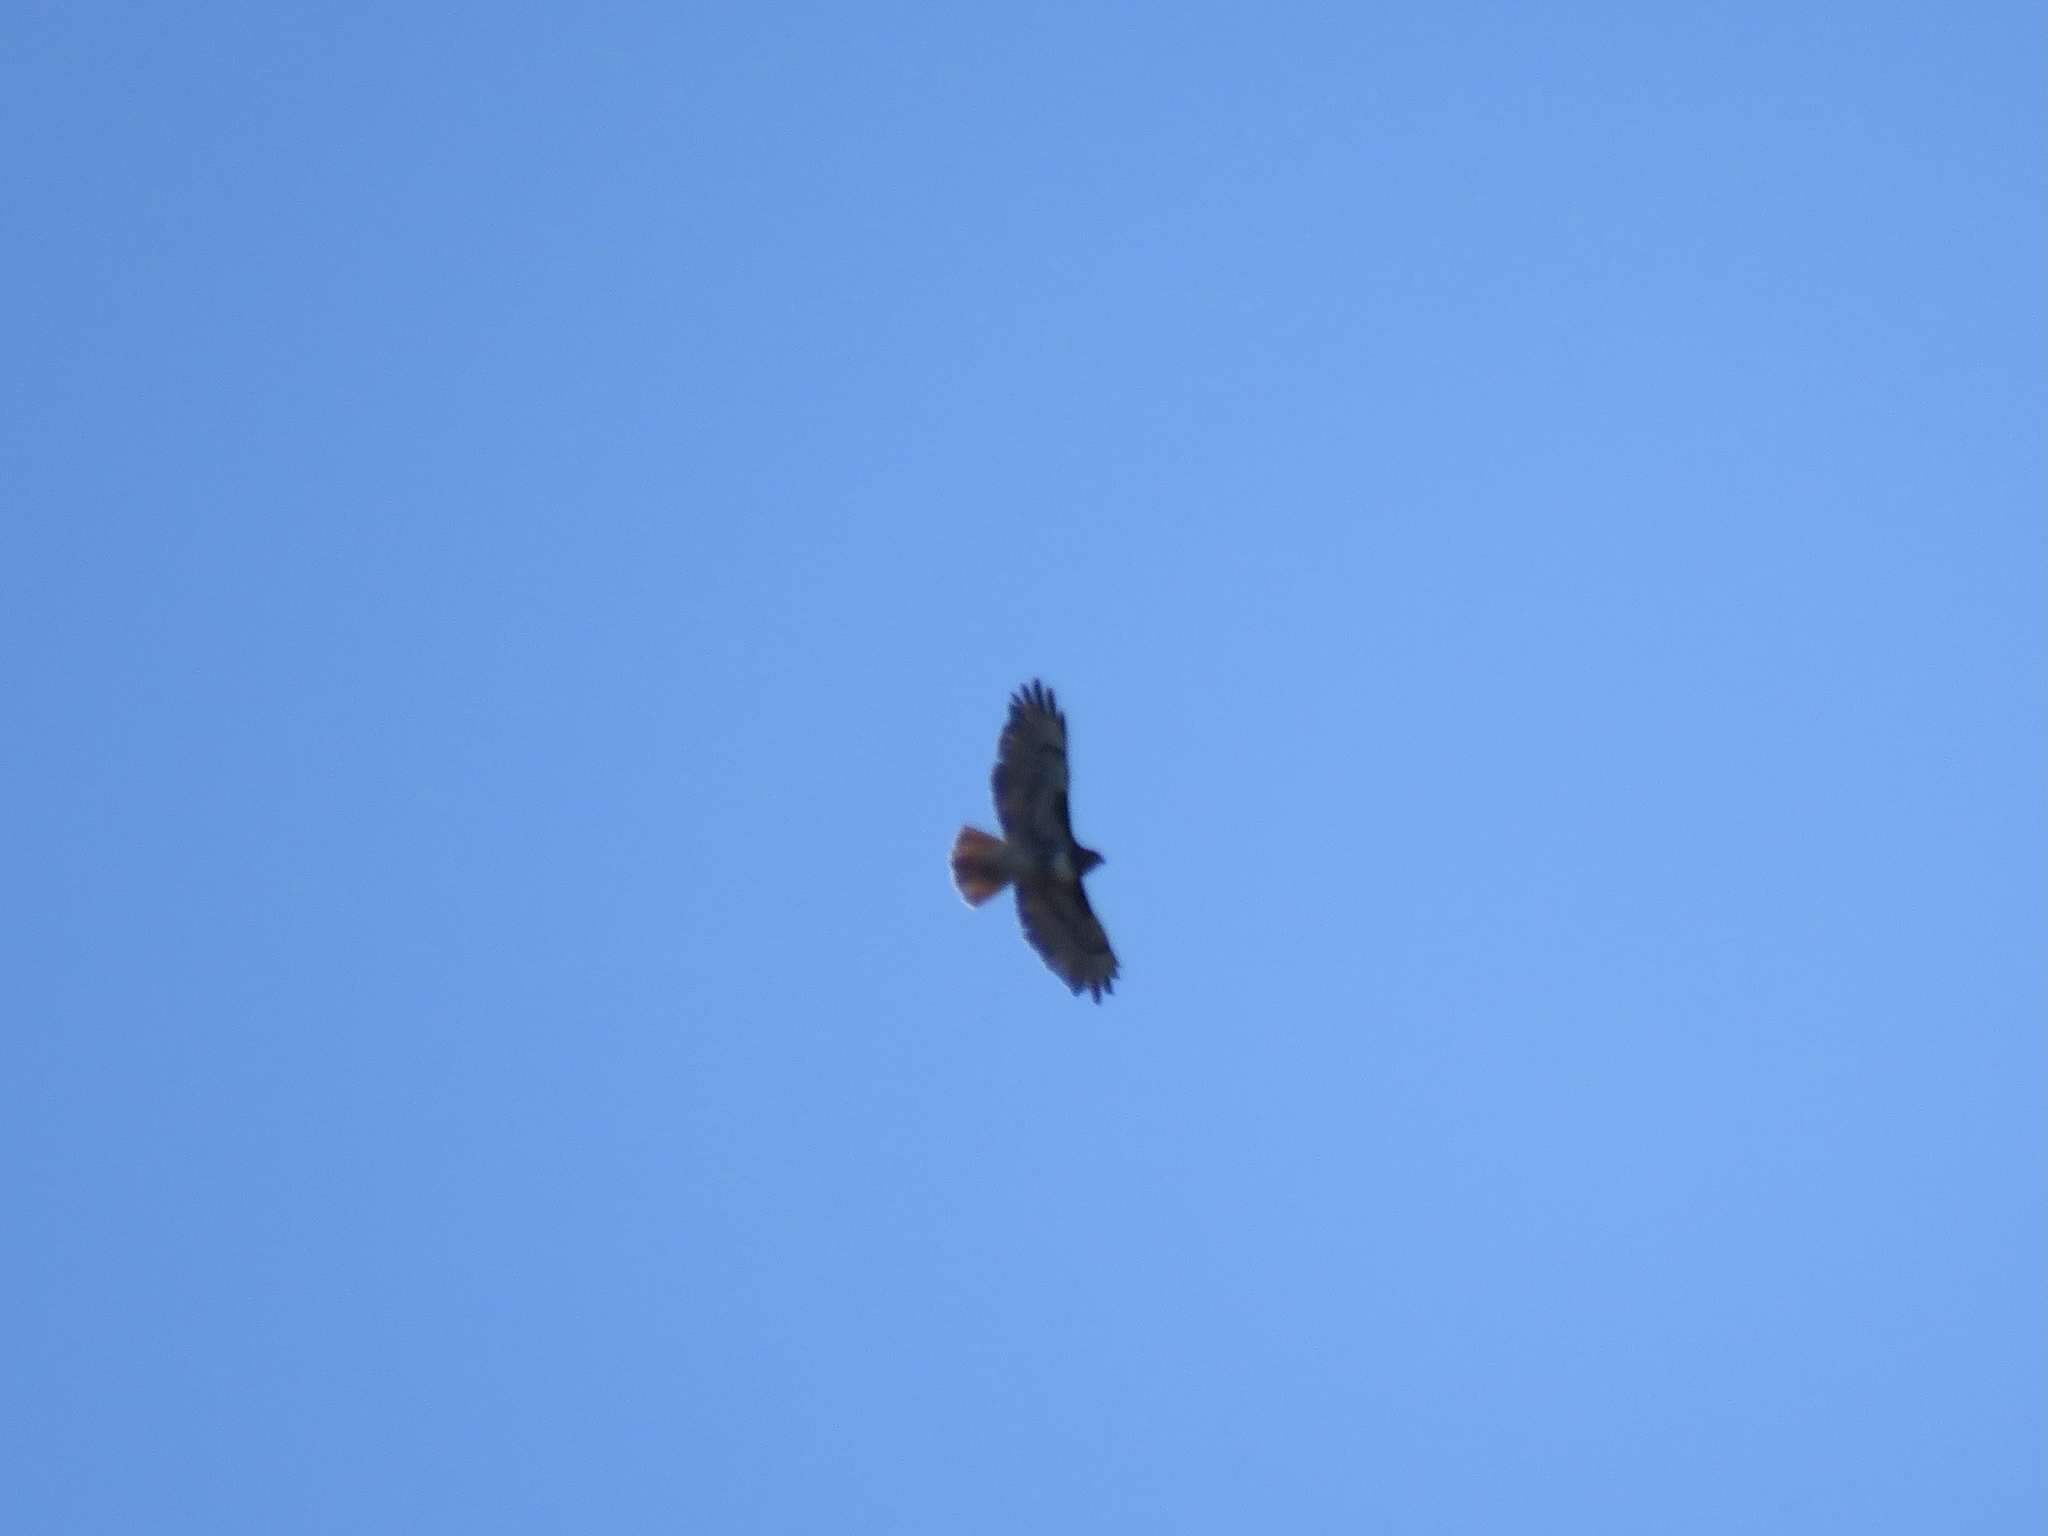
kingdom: Animalia
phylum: Chordata
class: Aves
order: Accipitriformes
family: Accipitridae
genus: Buteo
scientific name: Buteo jamaicensis
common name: Red-tailed hawk
